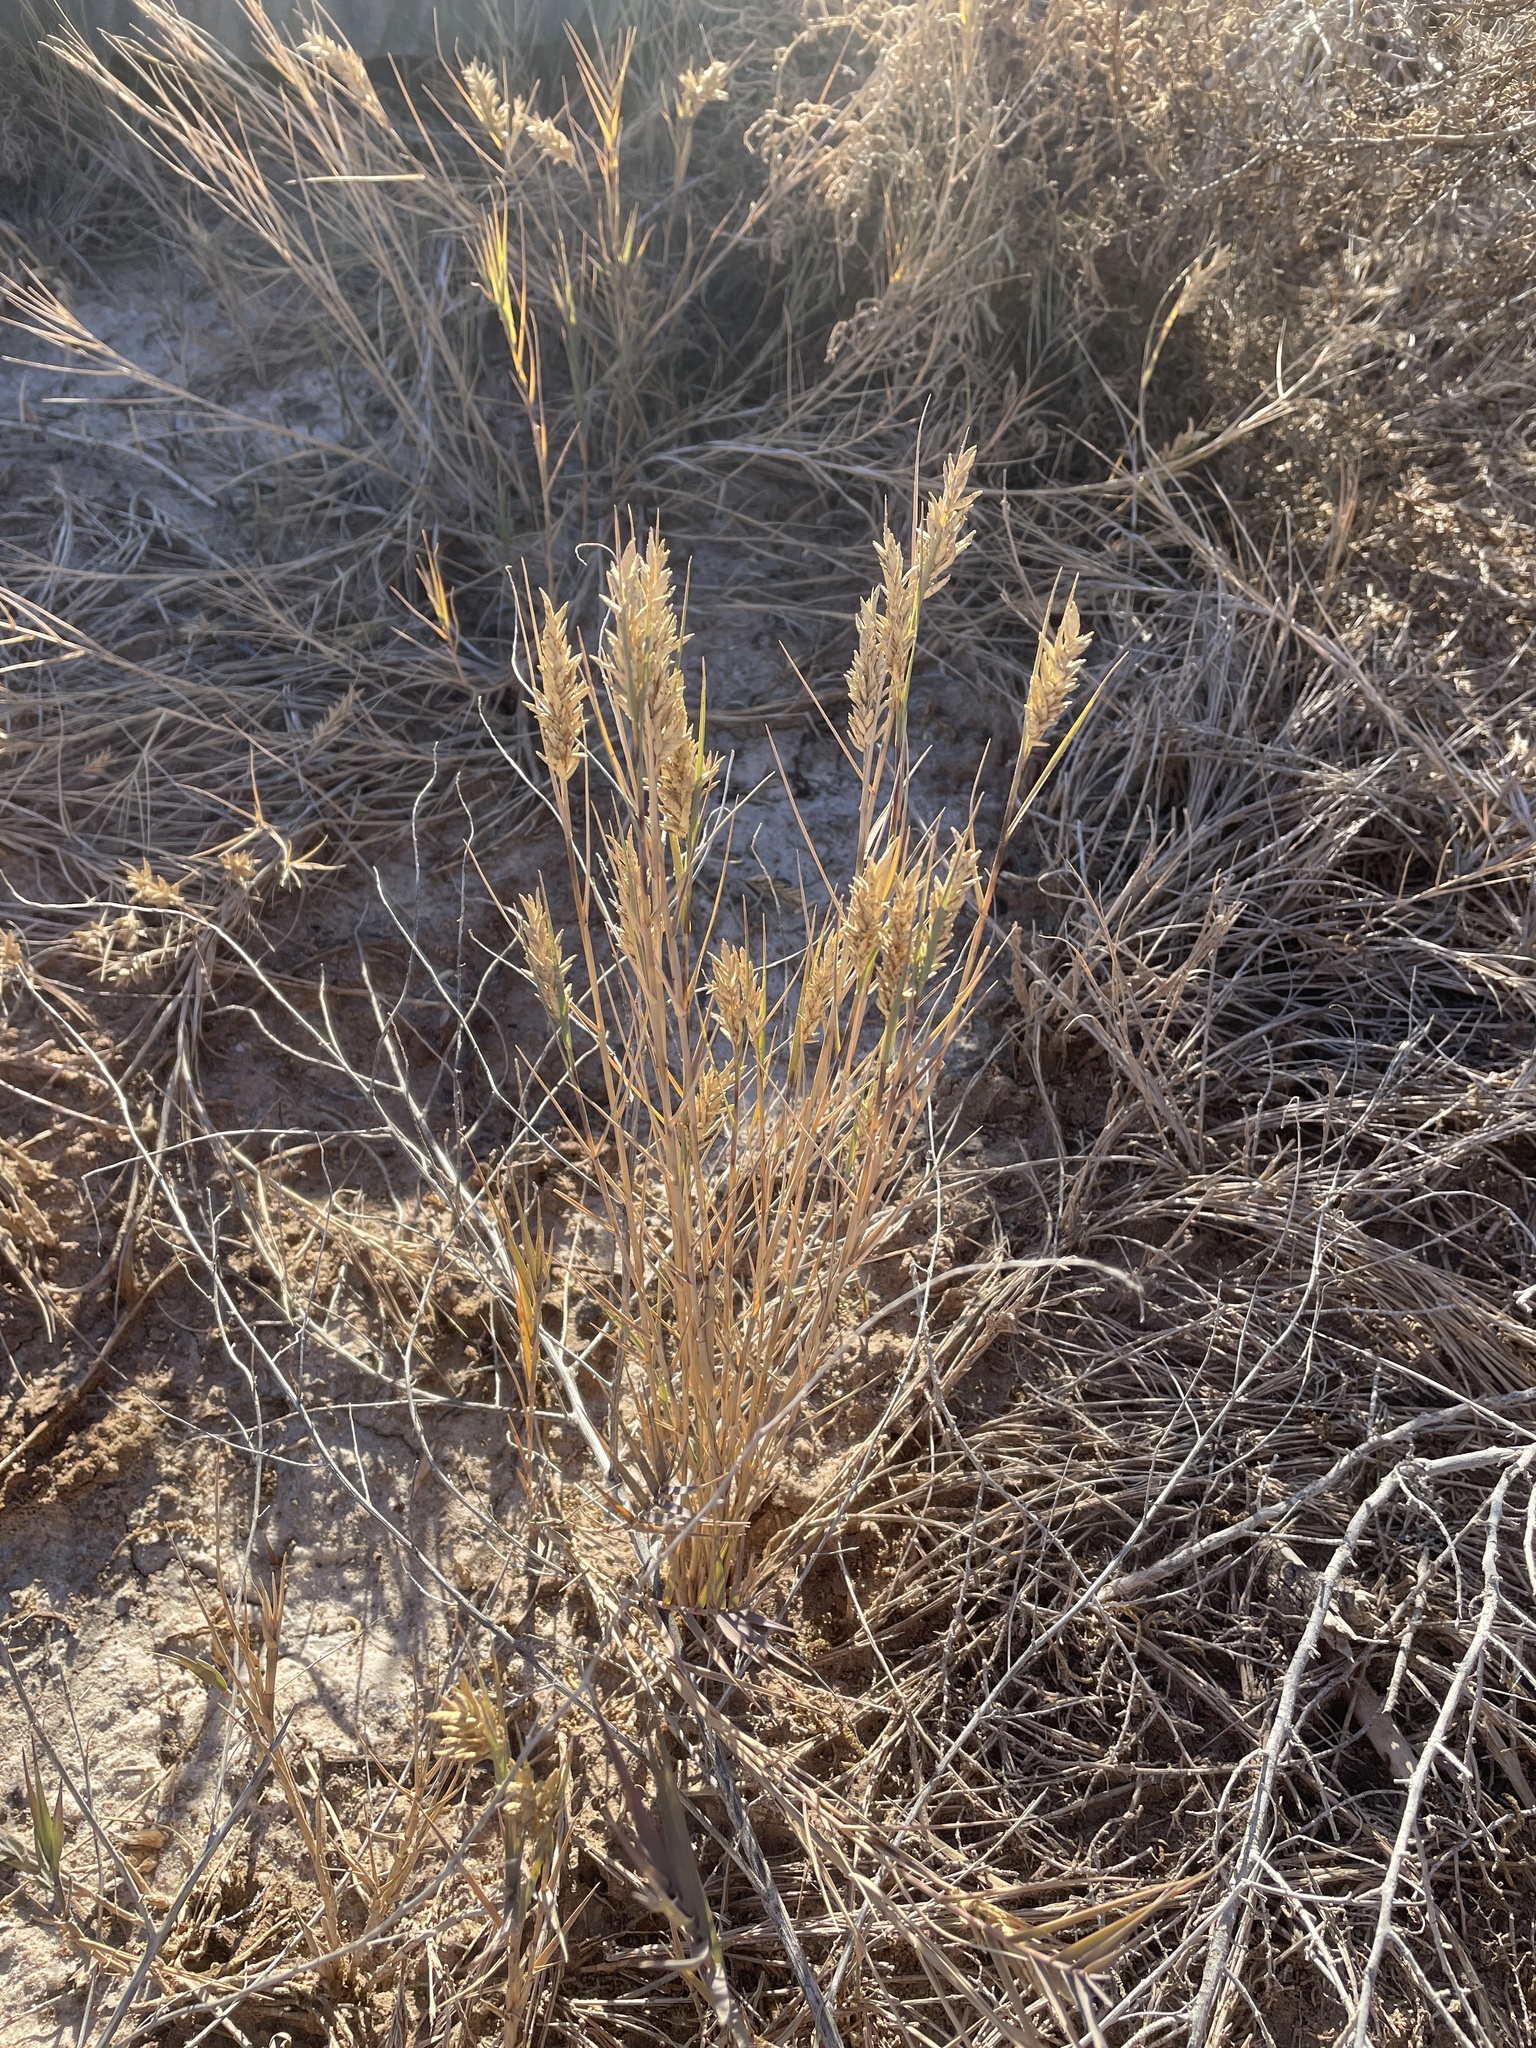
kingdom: Plantae
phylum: Tracheophyta
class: Liliopsida
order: Poales
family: Poaceae
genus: Distichlis
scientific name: Distichlis spicata
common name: Saltgrass
